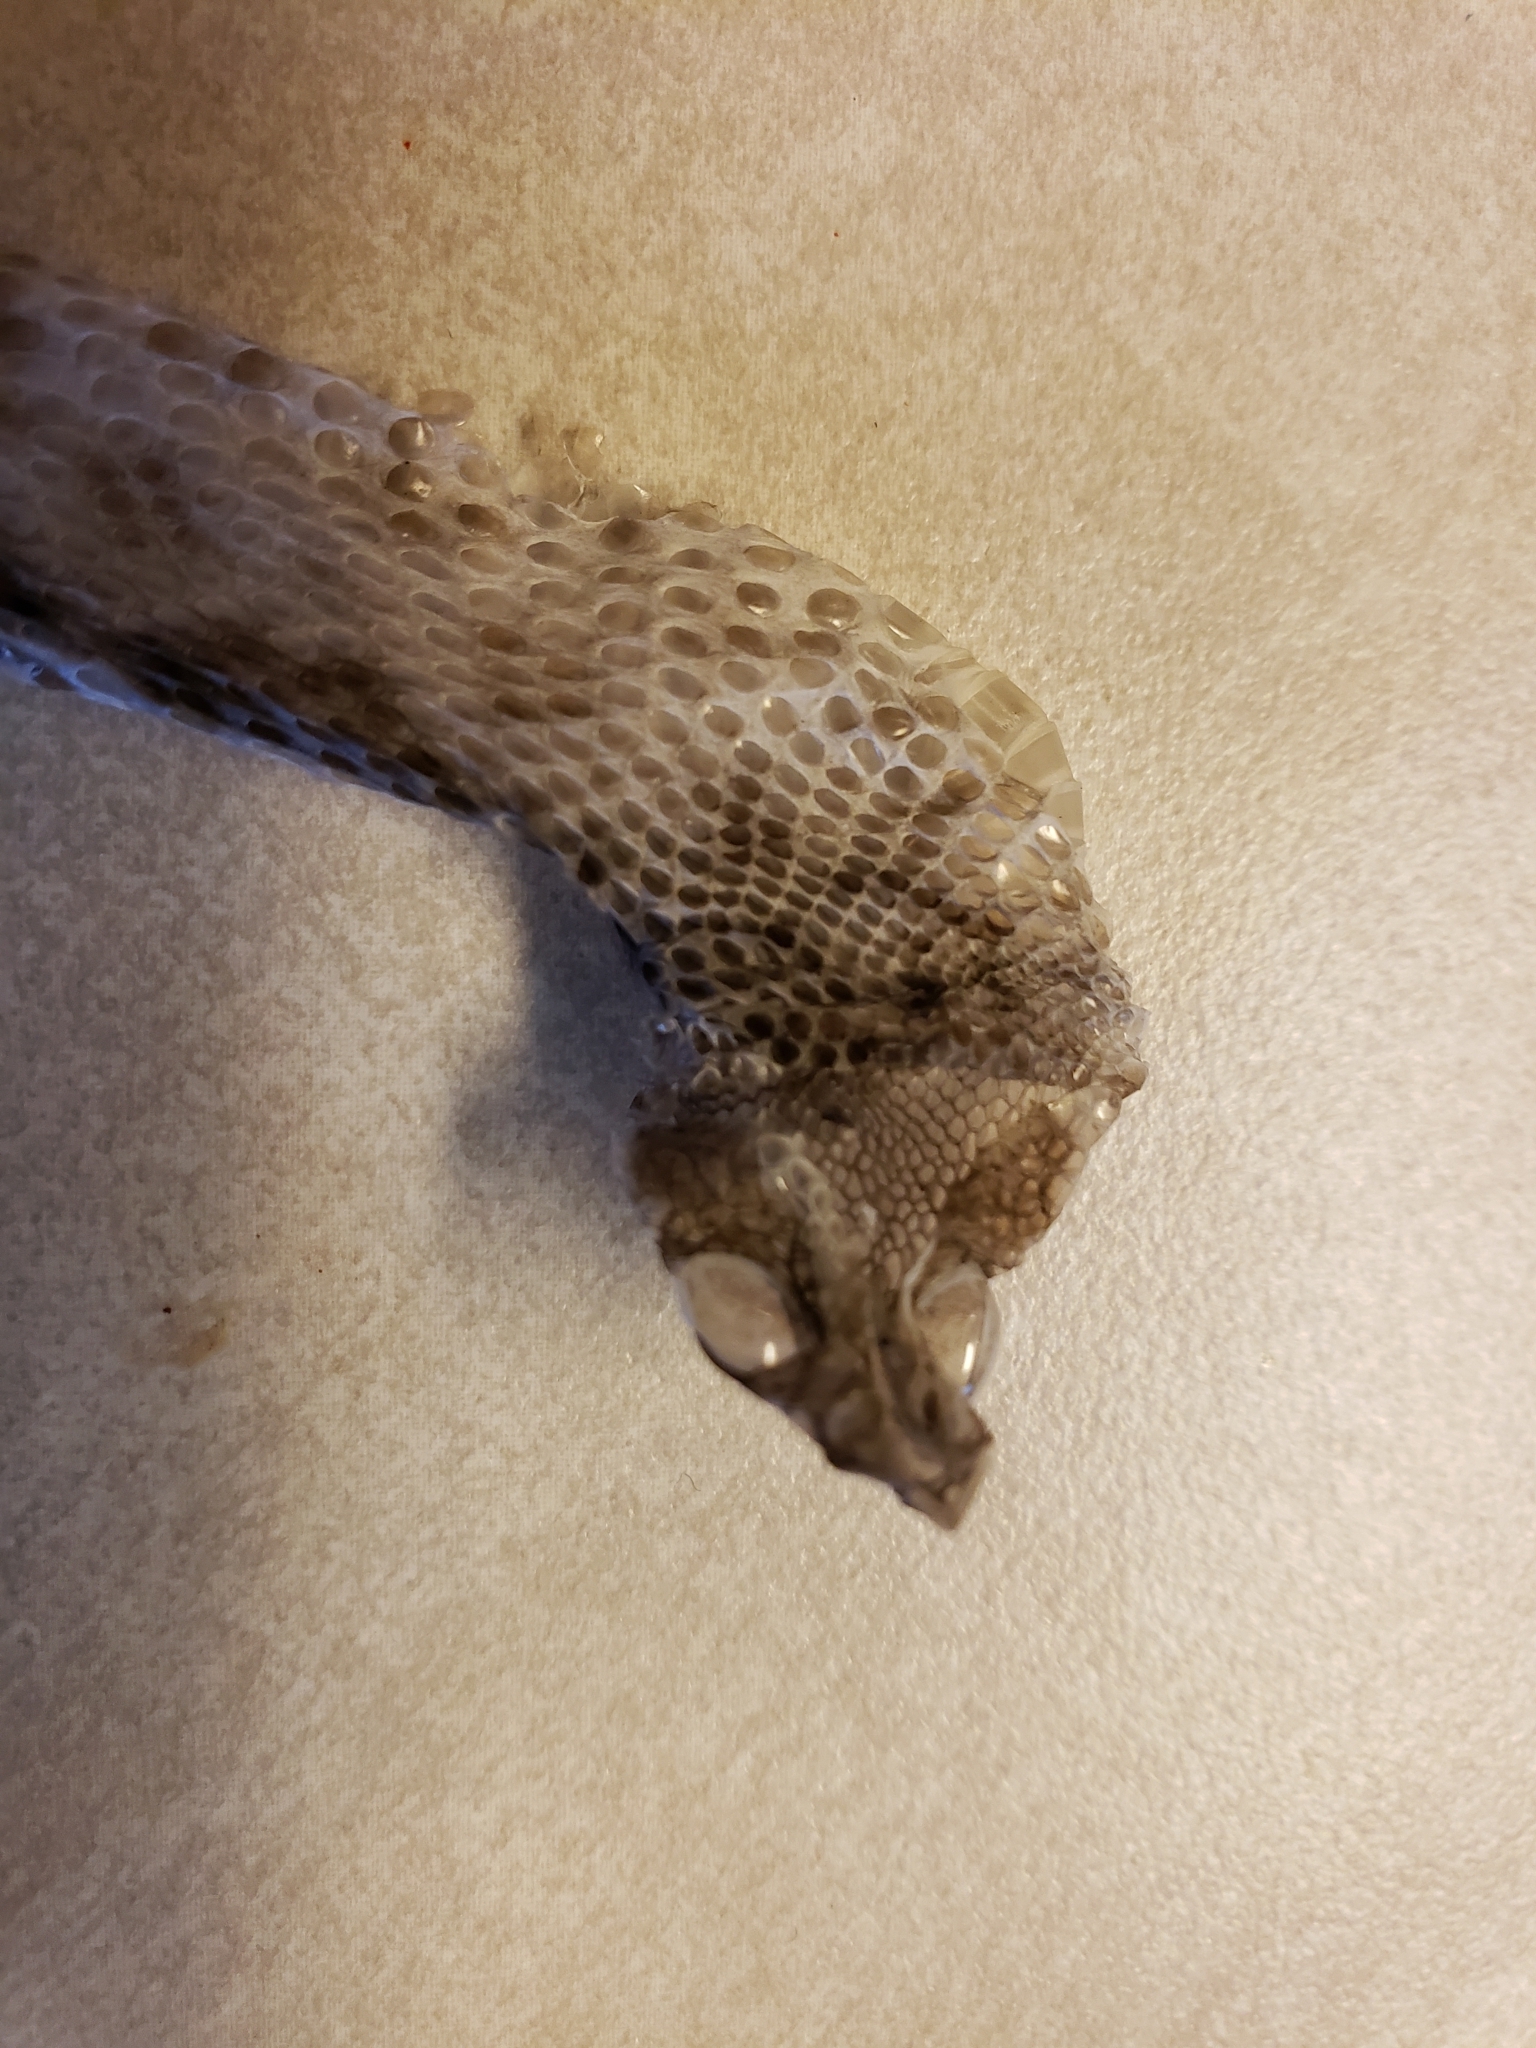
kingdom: Animalia
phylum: Chordata
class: Squamata
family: Viperidae
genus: Crotalus
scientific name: Crotalus atrox
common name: Western diamond-backed rattlesnake
